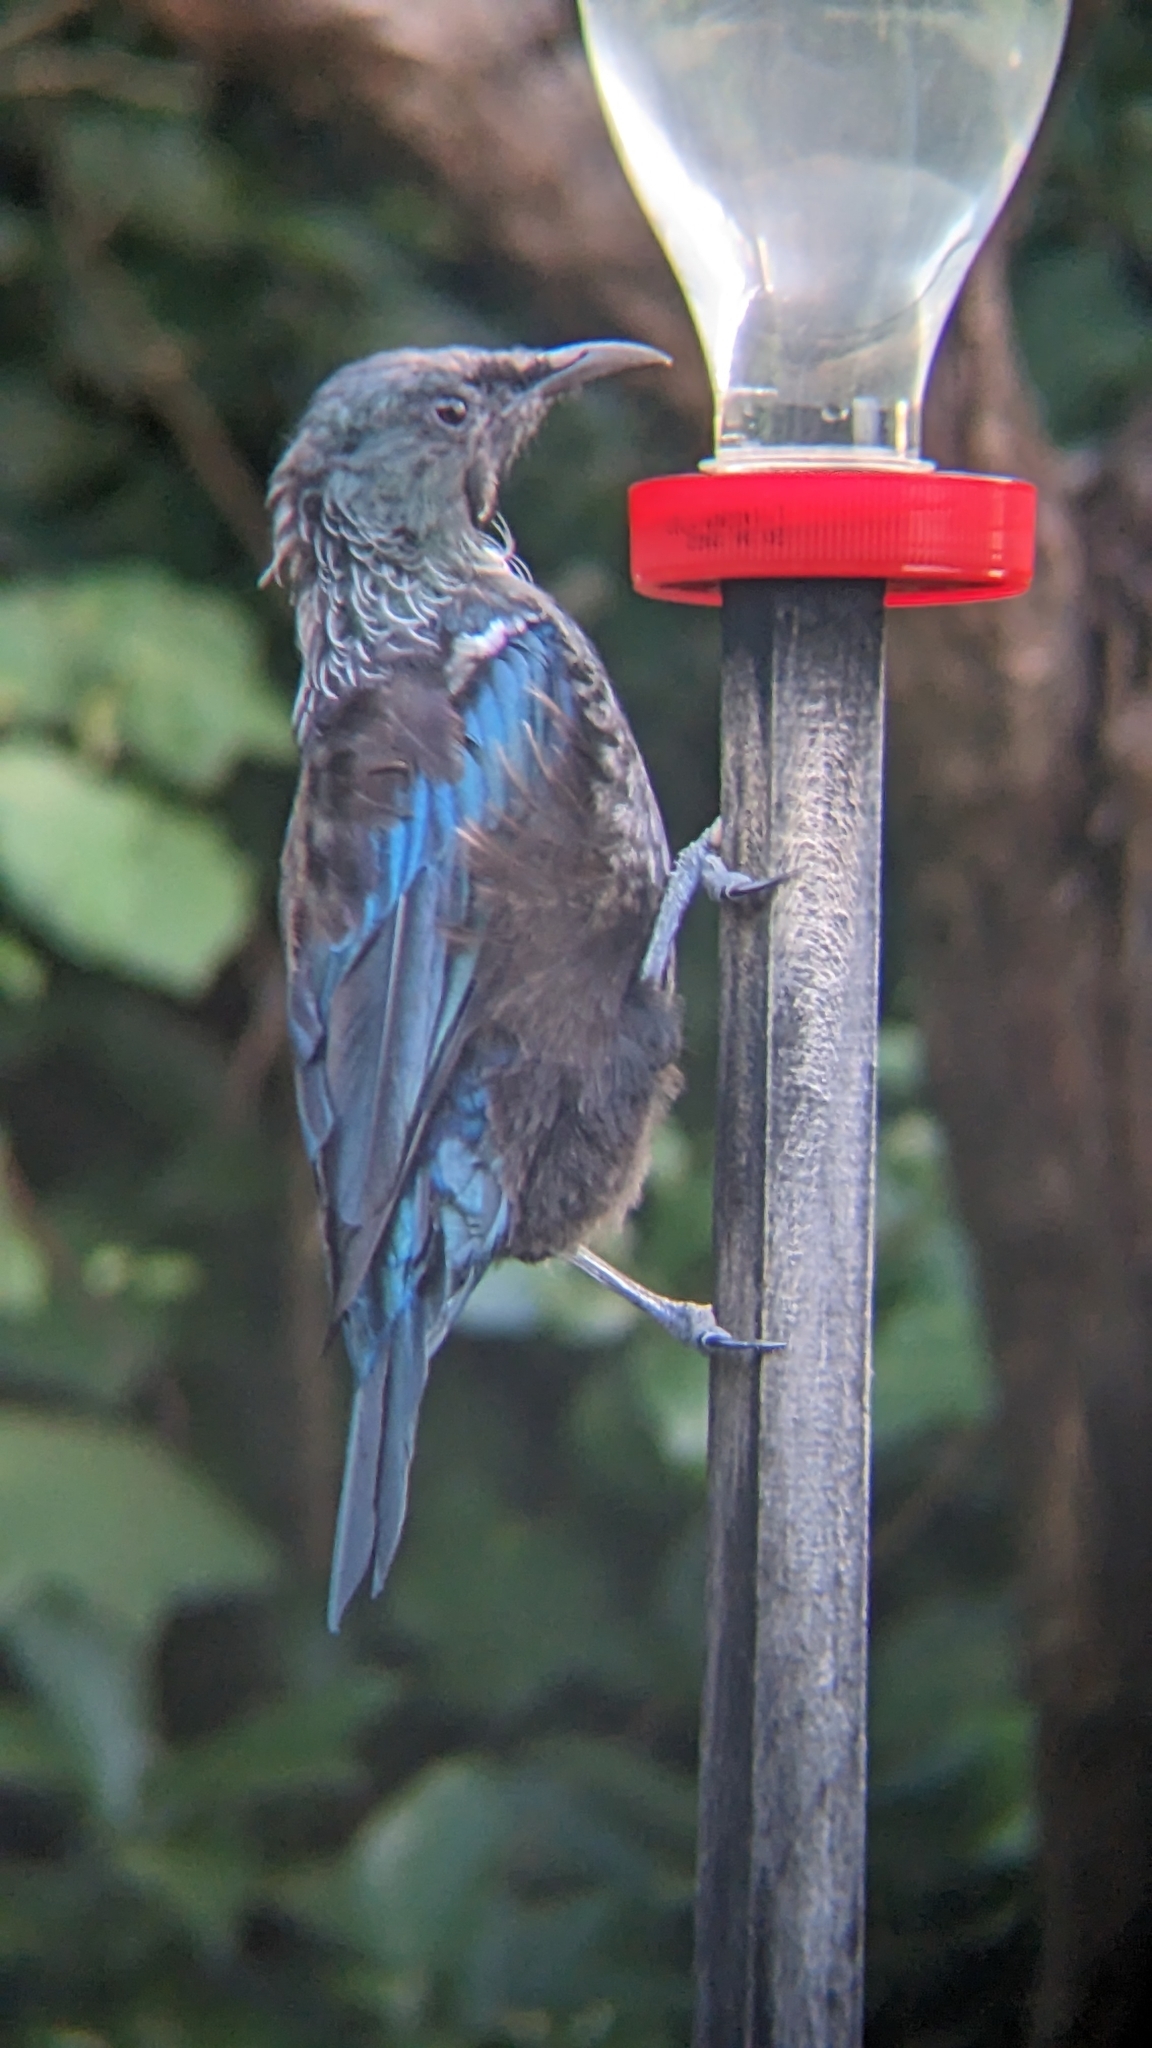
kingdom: Animalia
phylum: Chordata
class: Aves
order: Passeriformes
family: Meliphagidae
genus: Prosthemadera
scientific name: Prosthemadera novaeseelandiae
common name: Tui
